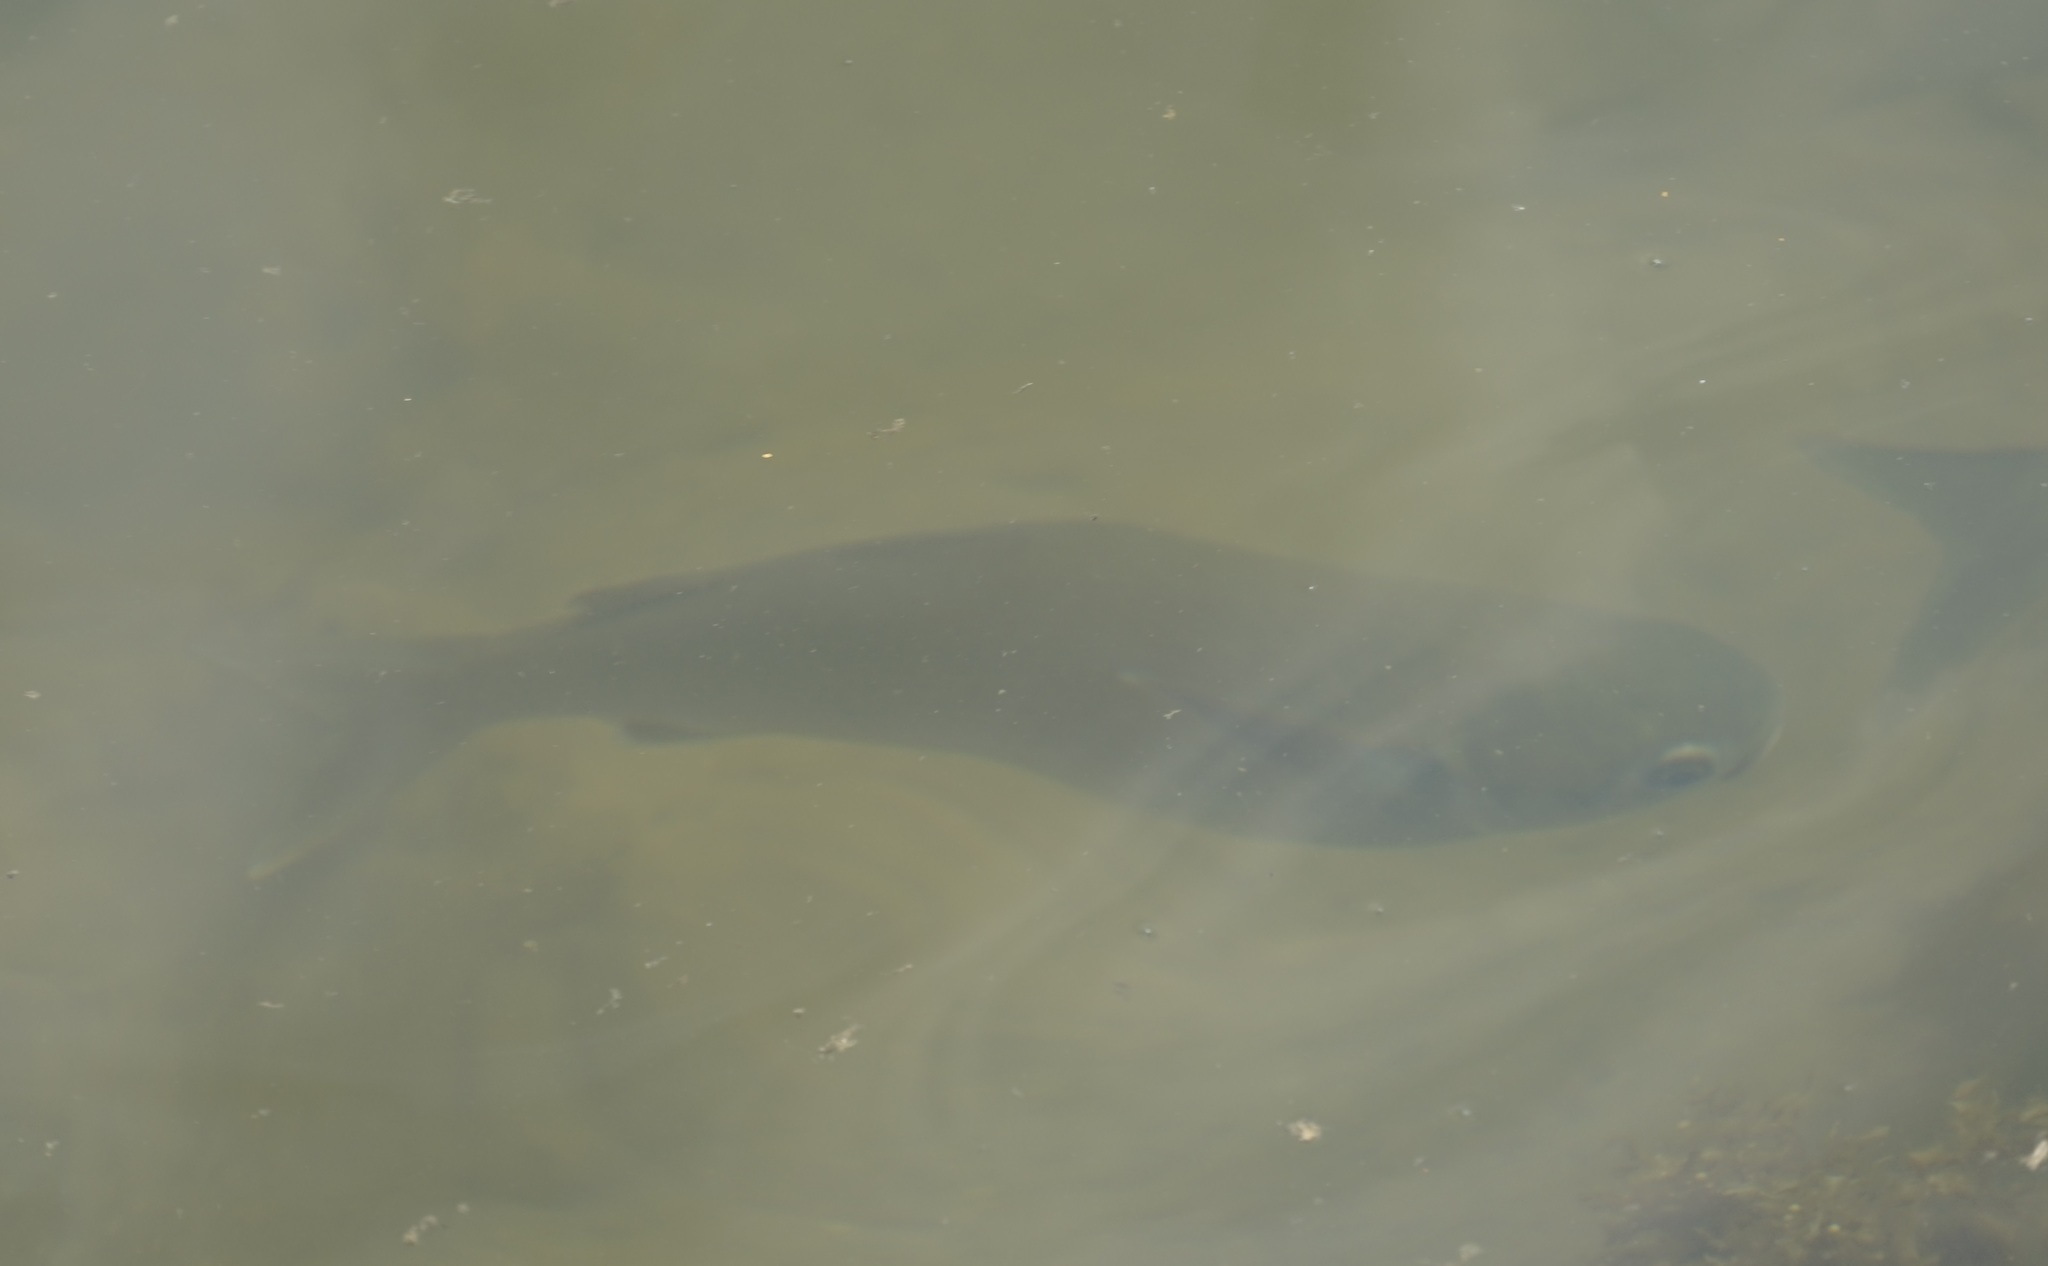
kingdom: Animalia
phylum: Chordata
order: Mugiliformes
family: Mugilidae
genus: Mugil
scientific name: Mugil cephalus
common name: Grey mullet
